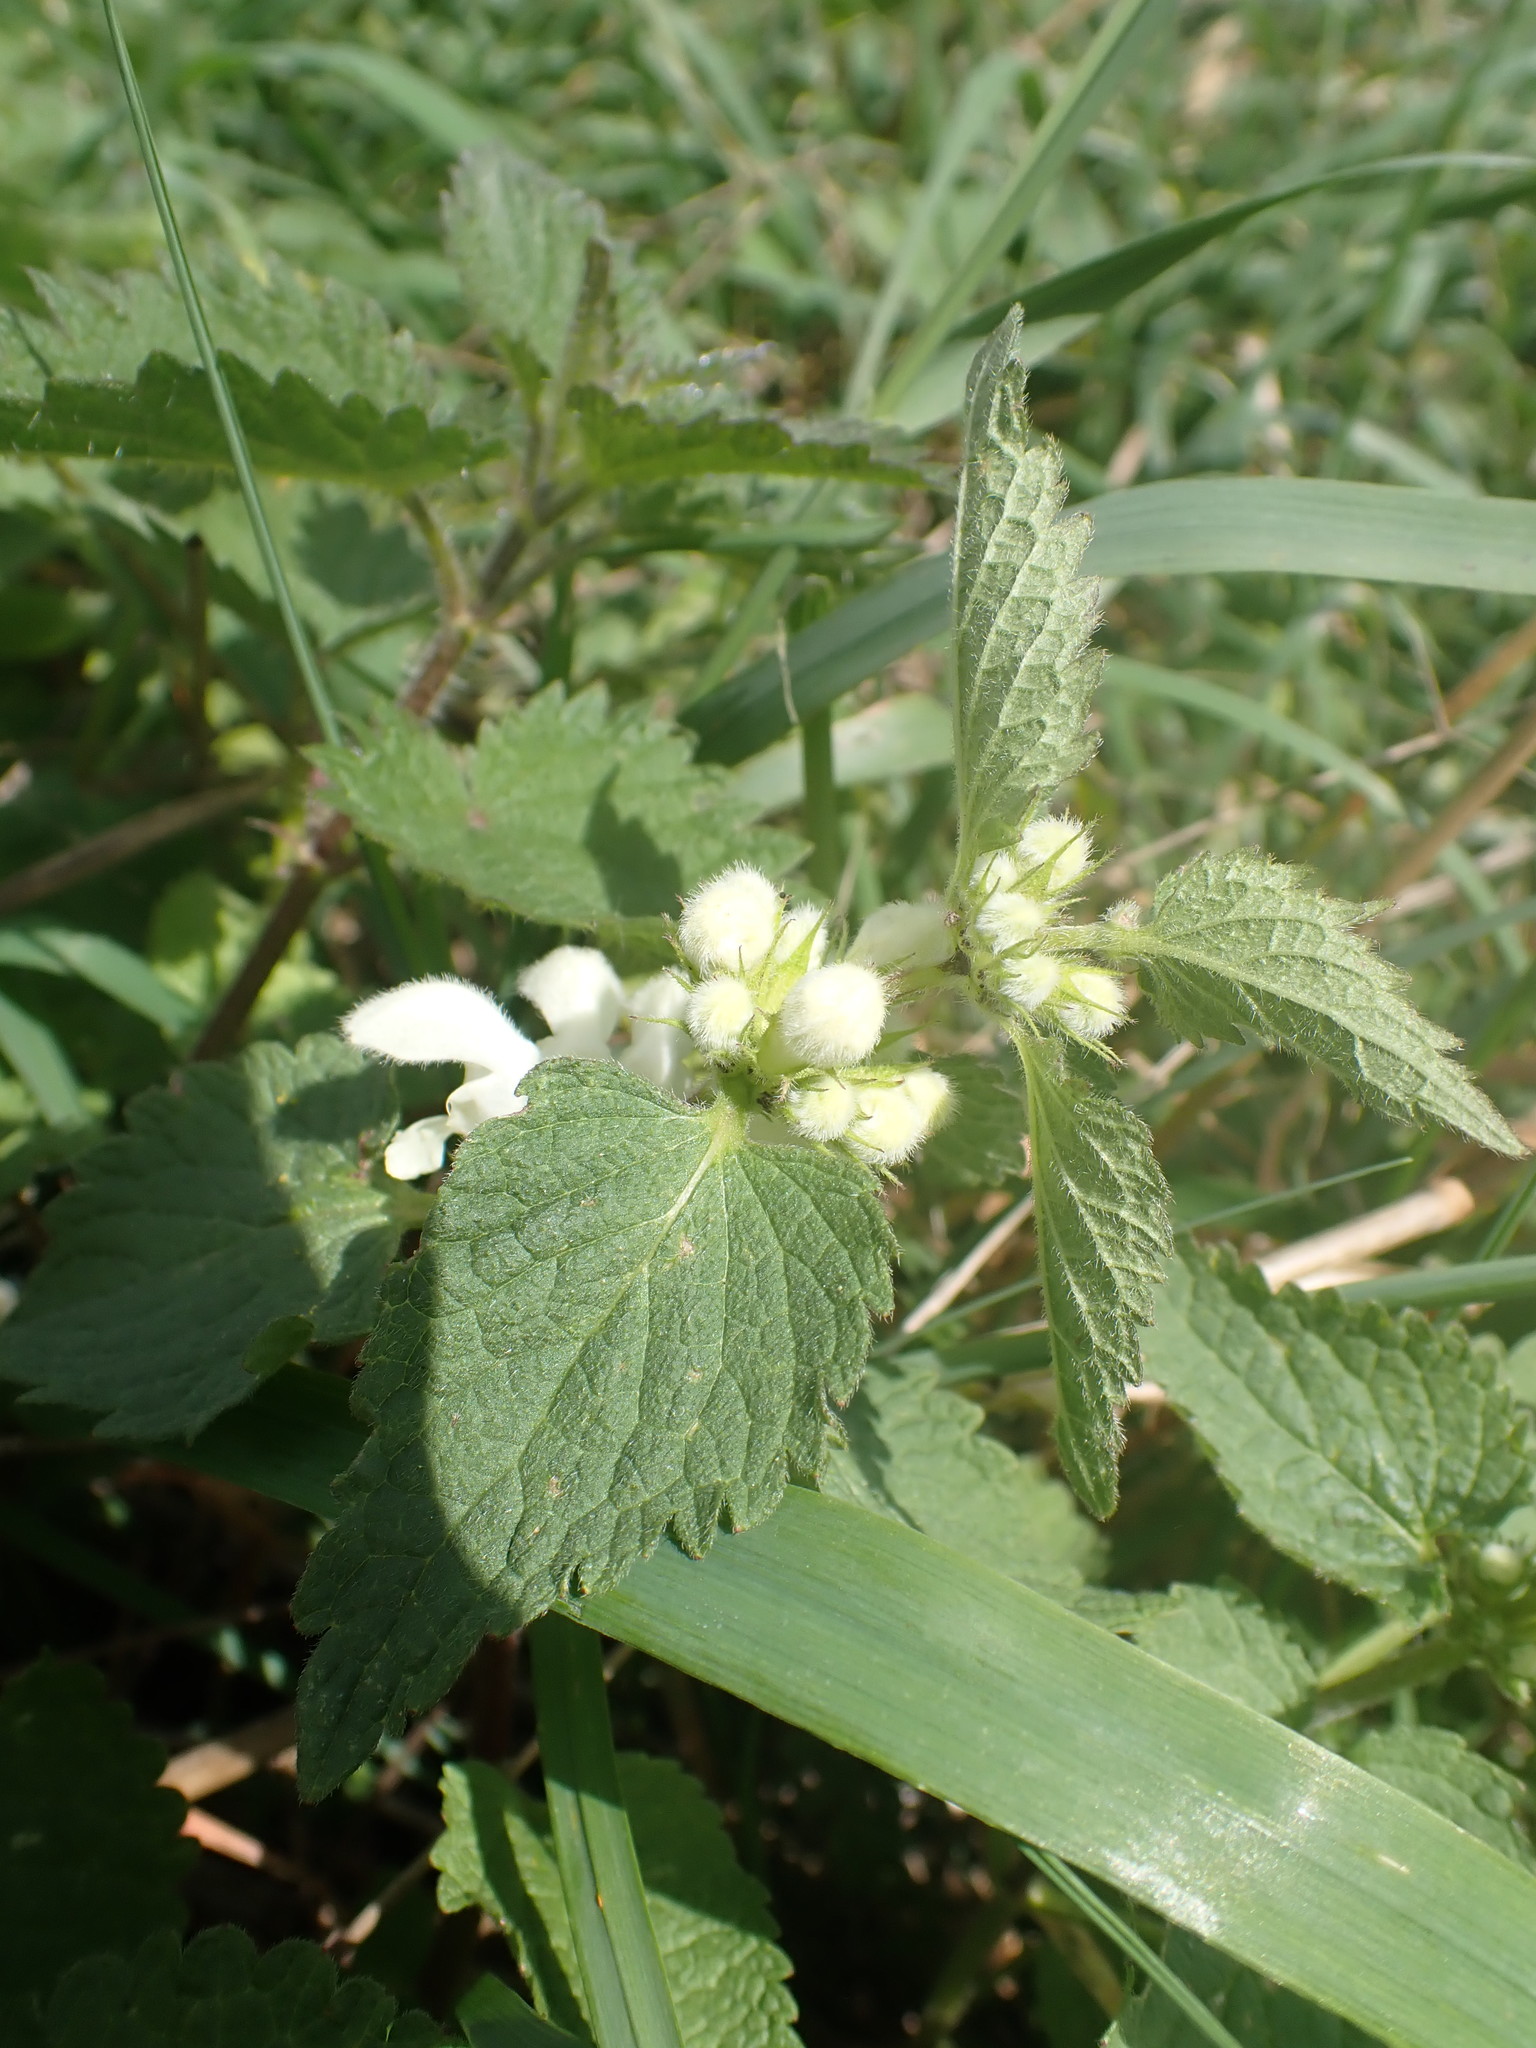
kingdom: Plantae
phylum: Tracheophyta
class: Magnoliopsida
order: Lamiales
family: Lamiaceae
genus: Lamium
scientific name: Lamium album
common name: White dead-nettle
